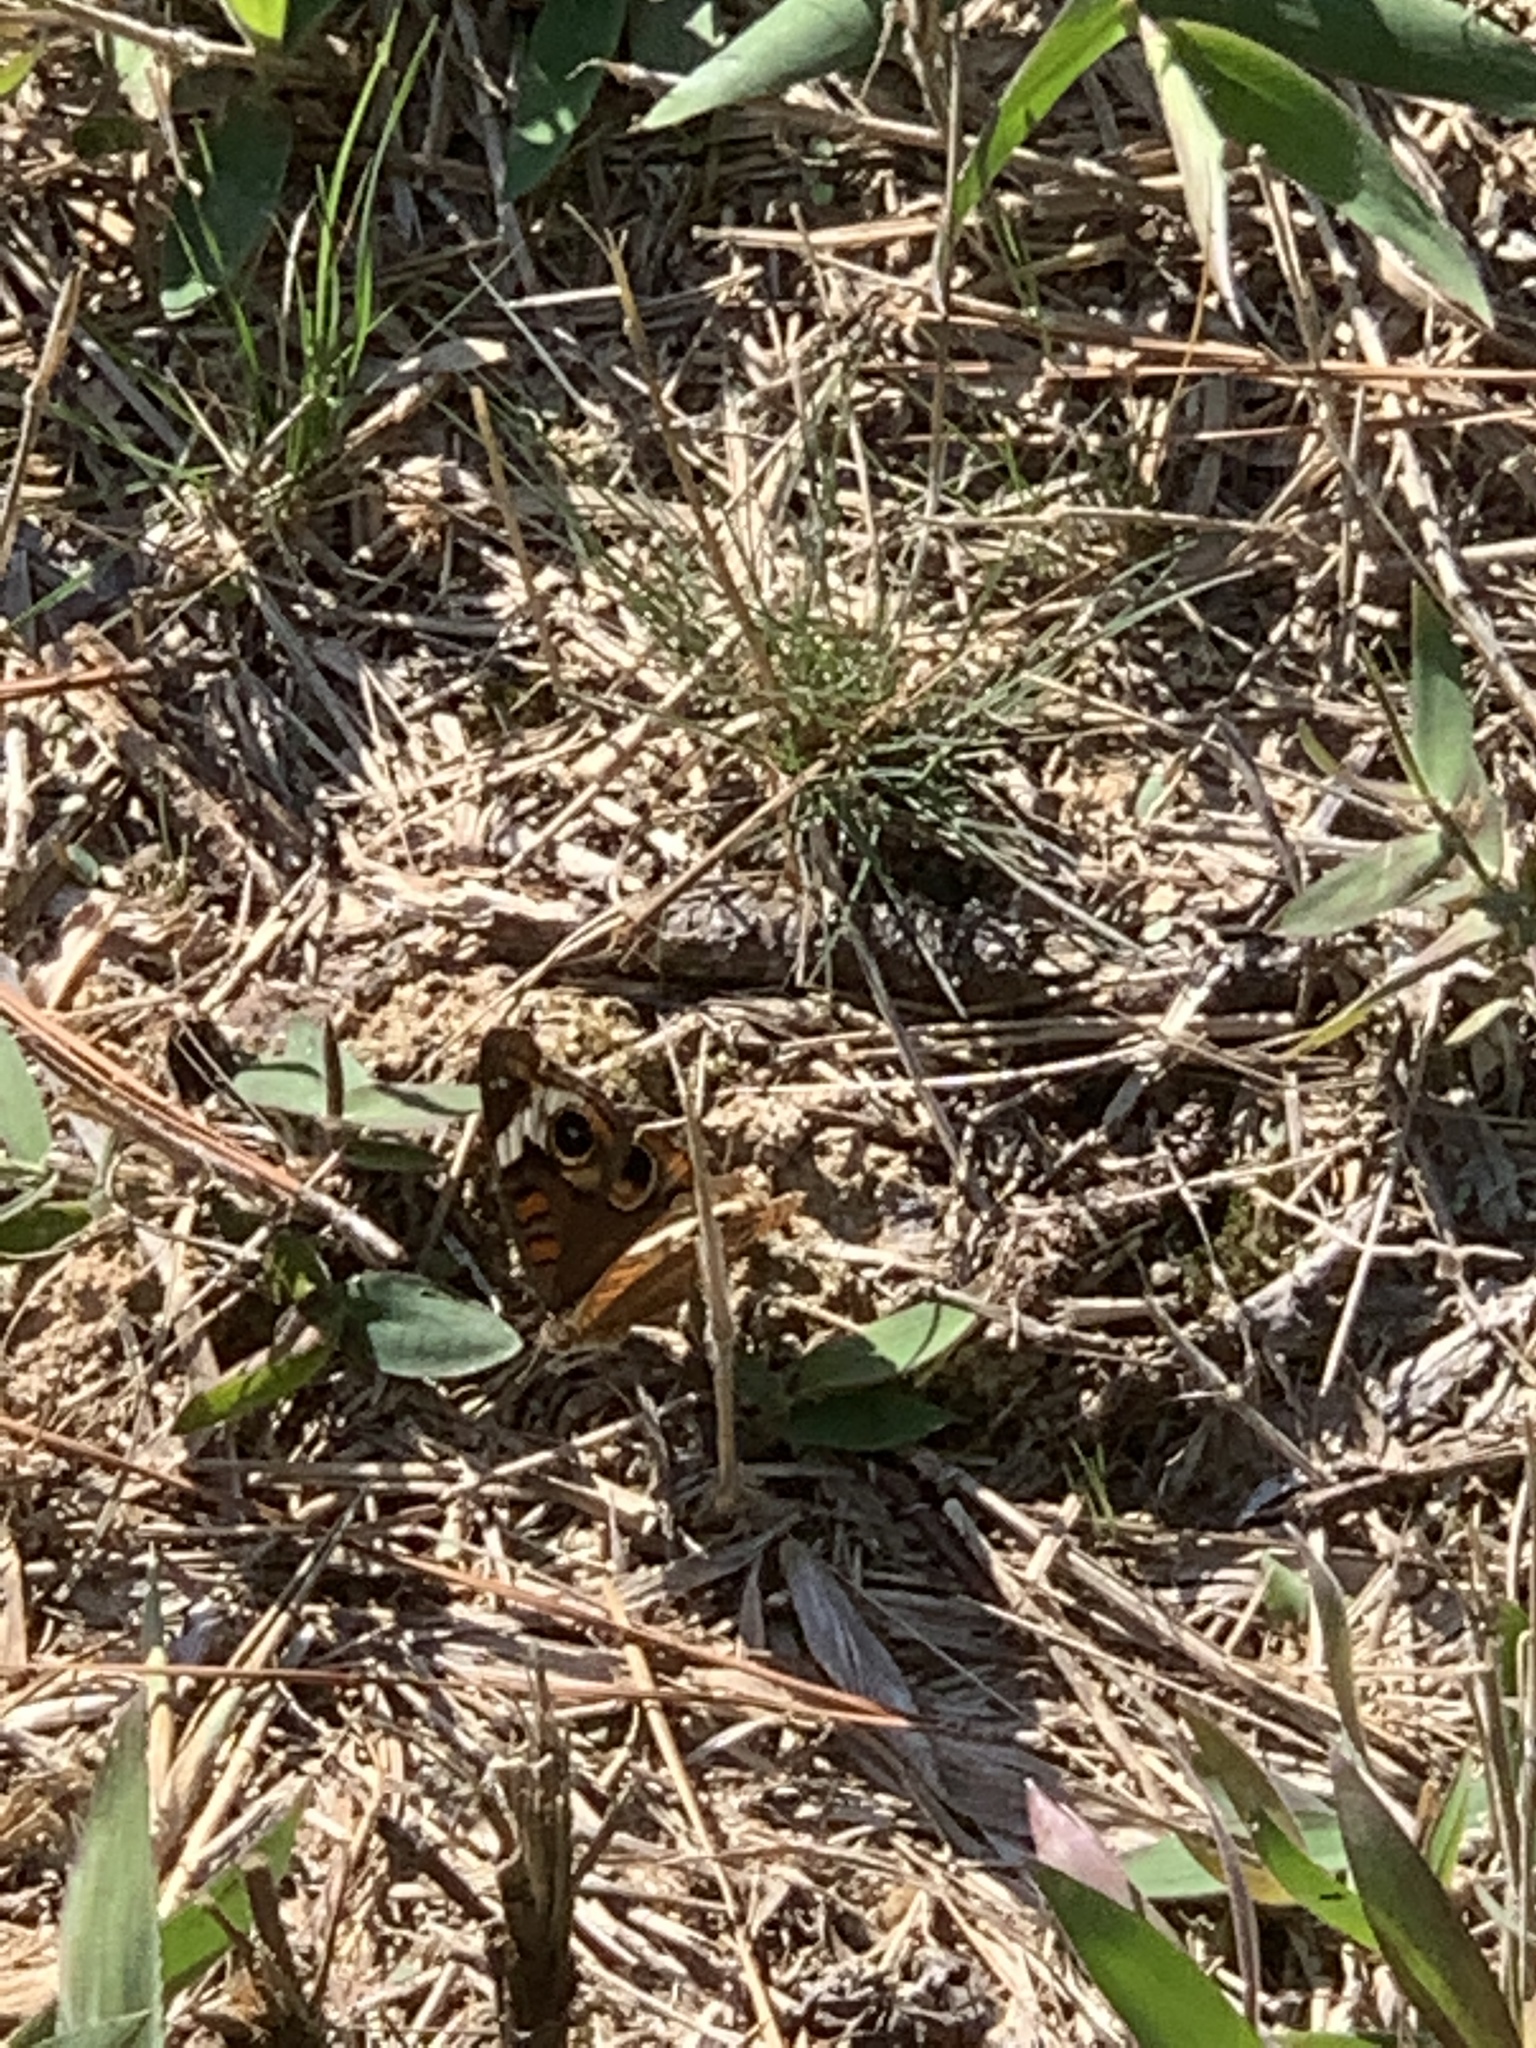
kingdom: Animalia
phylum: Arthropoda
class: Insecta
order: Lepidoptera
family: Nymphalidae
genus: Junonia
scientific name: Junonia coenia
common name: Common buckeye
